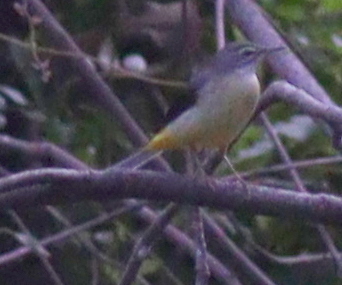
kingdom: Animalia
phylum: Chordata
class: Aves
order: Passeriformes
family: Motacillidae
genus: Motacilla
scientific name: Motacilla cinerea
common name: Grey wagtail
